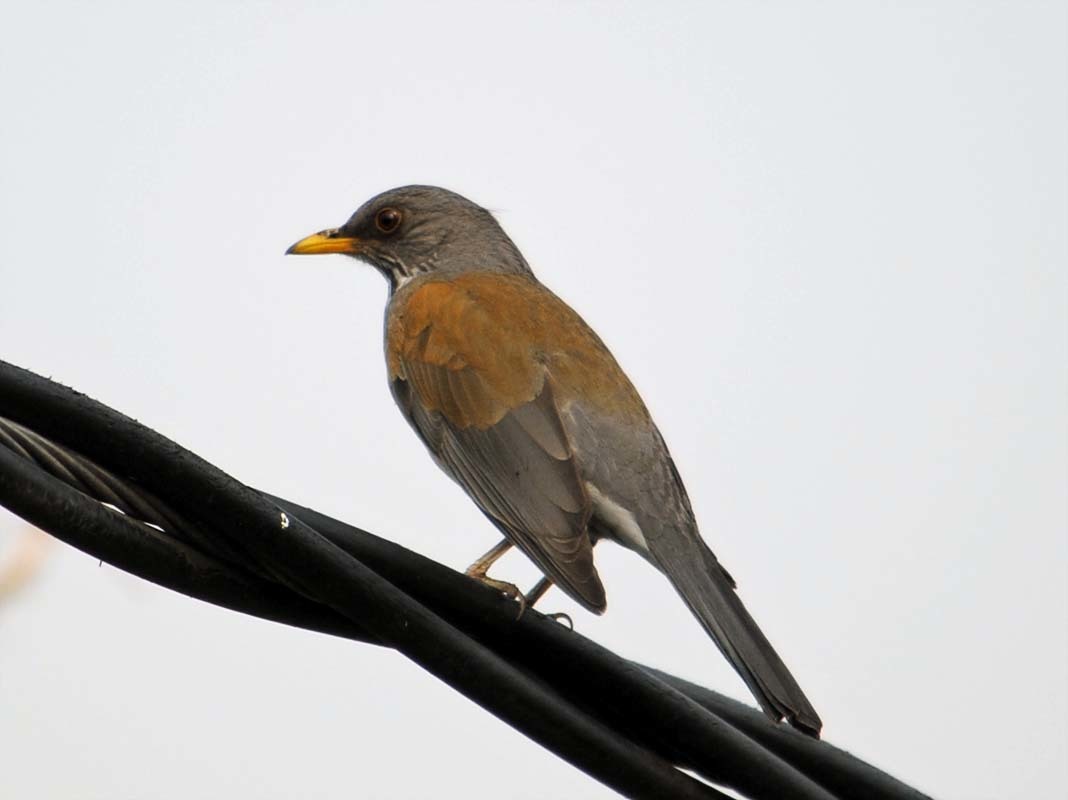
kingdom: Animalia
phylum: Chordata
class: Aves
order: Passeriformes
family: Turdidae
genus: Turdus
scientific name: Turdus rufopalliatus
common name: Rufous-backed robin
